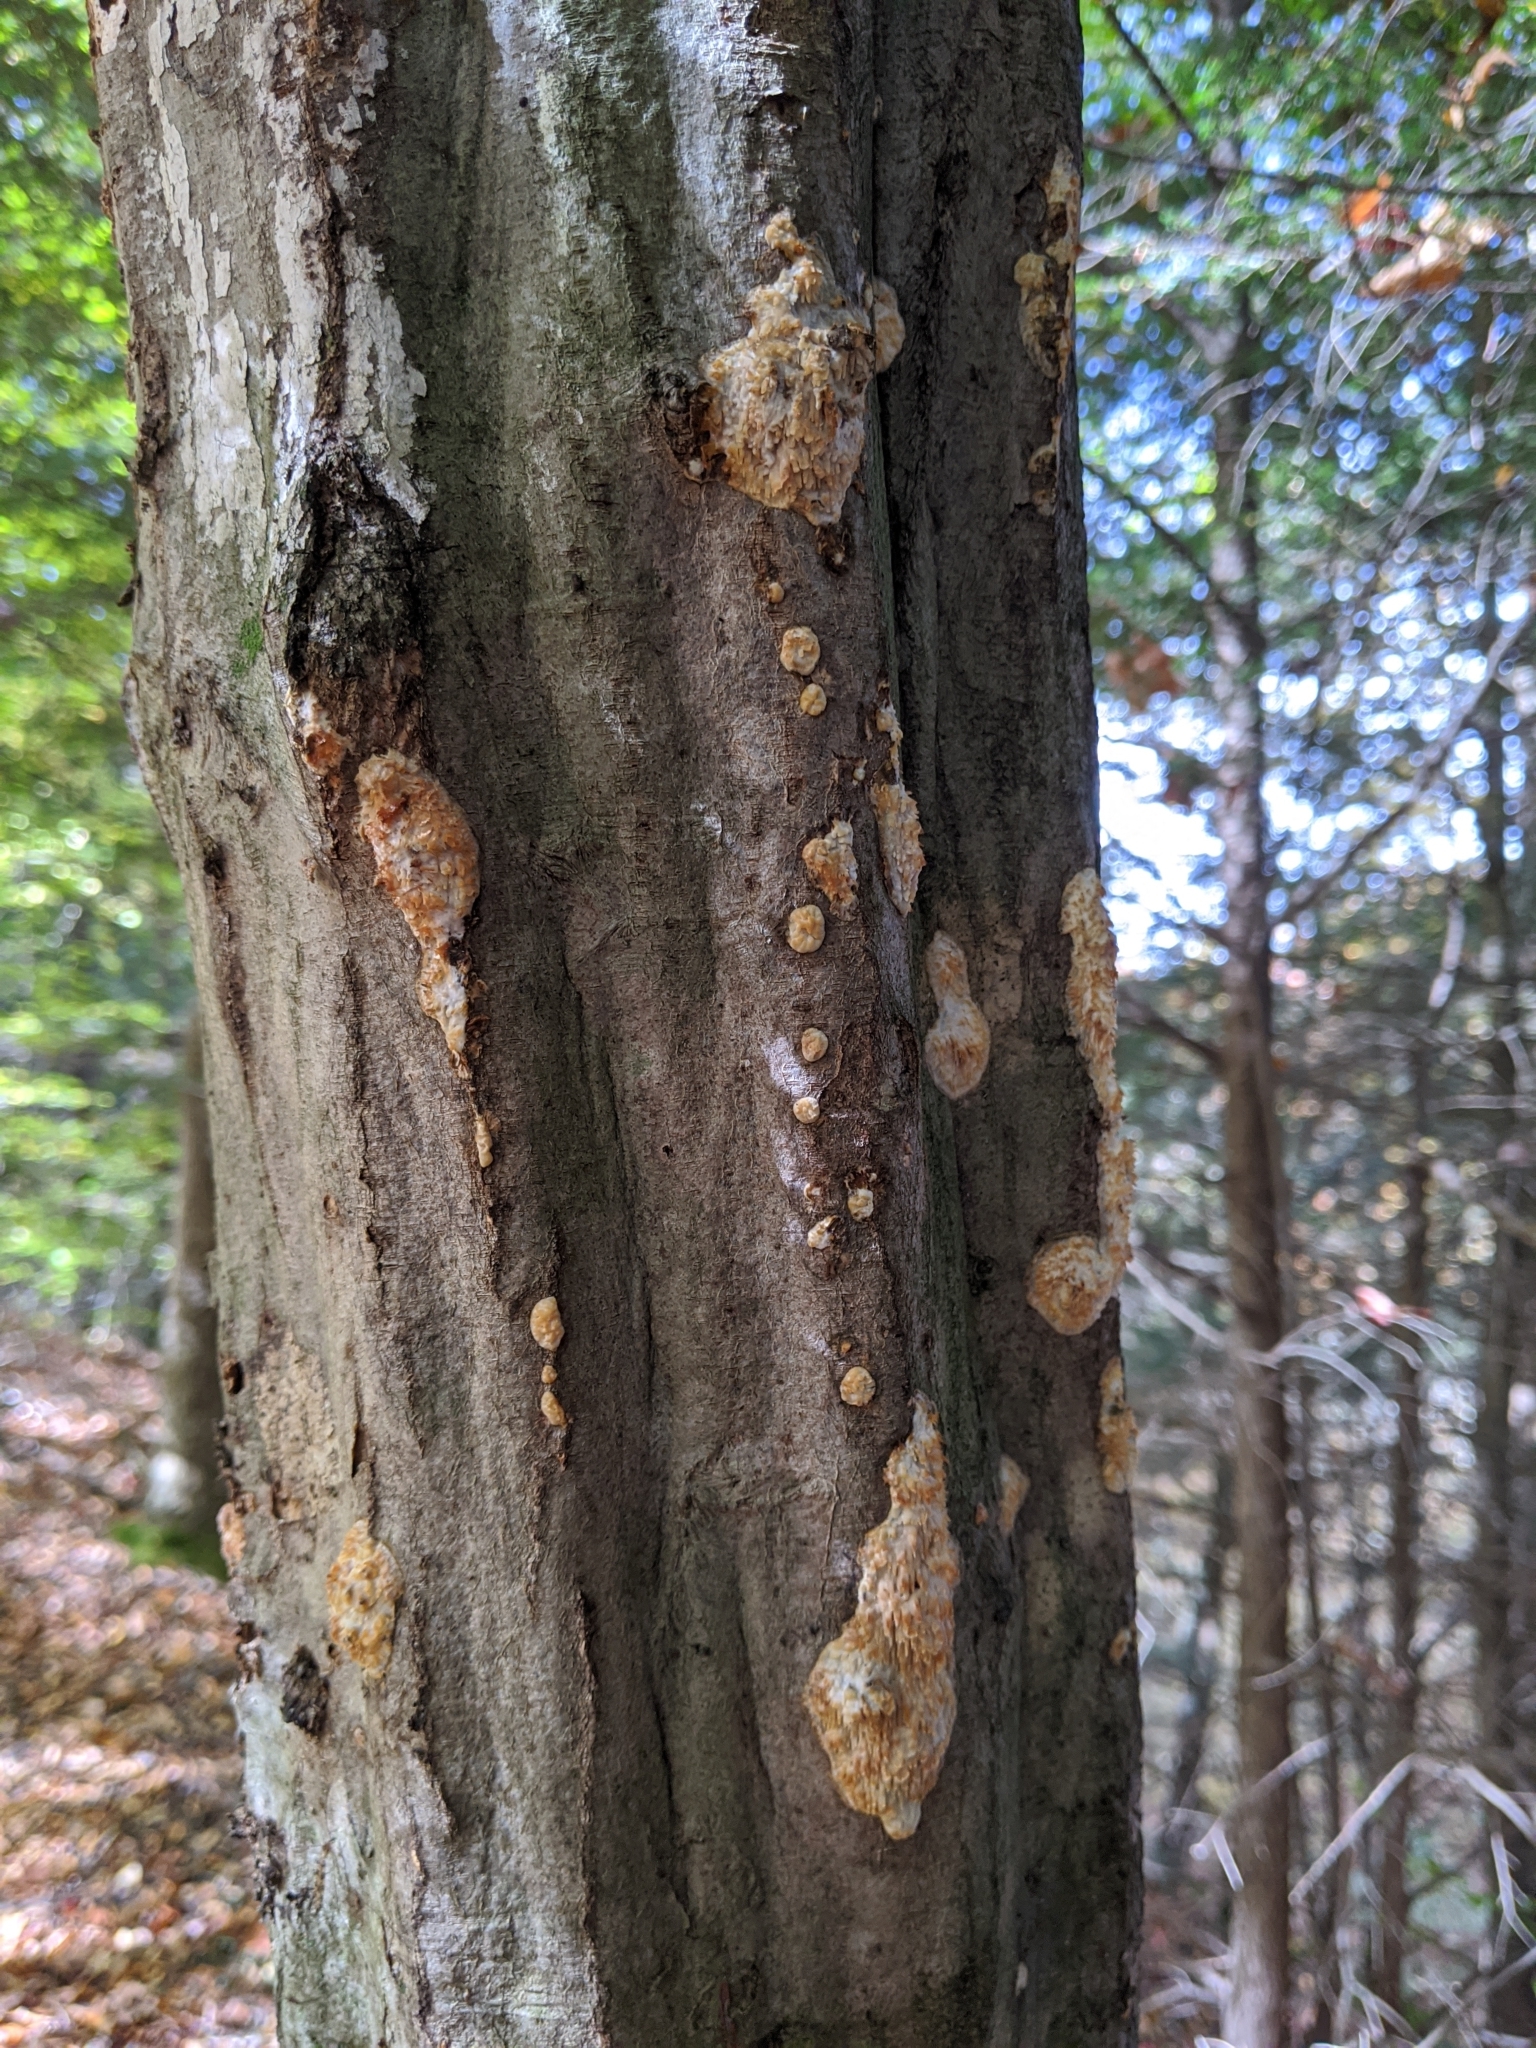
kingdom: Fungi
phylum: Basidiomycota
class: Agaricomycetes
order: Agaricales
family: Radulomycetaceae
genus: Radulomyces
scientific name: Radulomyces copelandii
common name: Asian beauty
